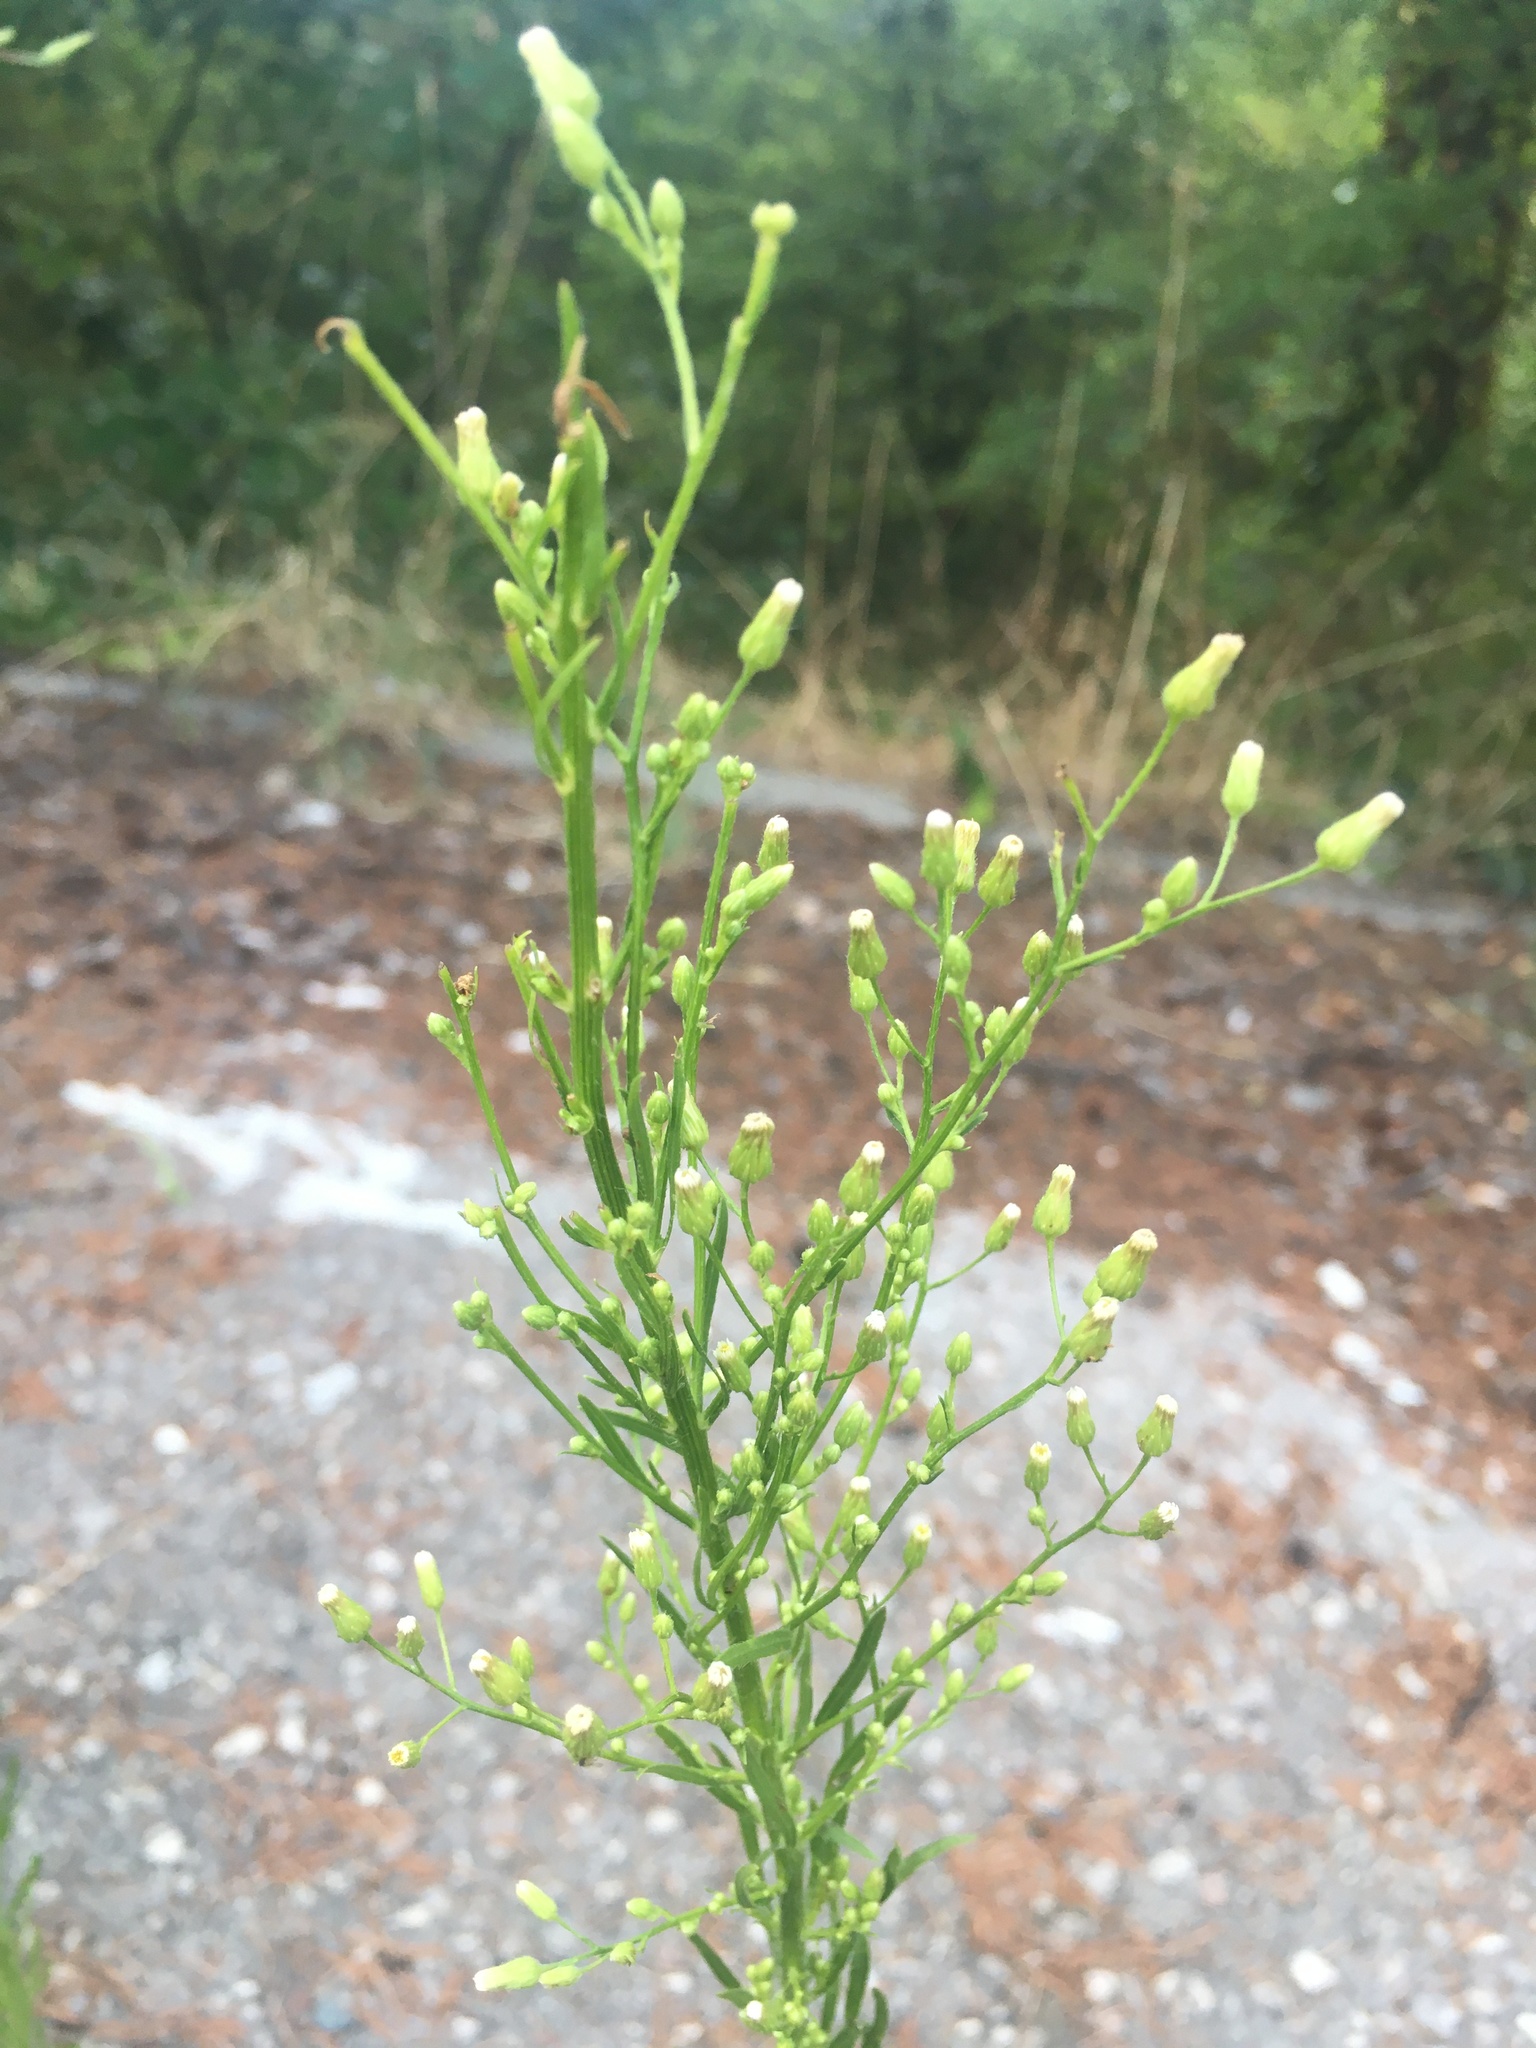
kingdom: Plantae
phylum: Tracheophyta
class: Magnoliopsida
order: Asterales
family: Asteraceae
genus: Erigeron
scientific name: Erigeron canadensis
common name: Canadian fleabane
